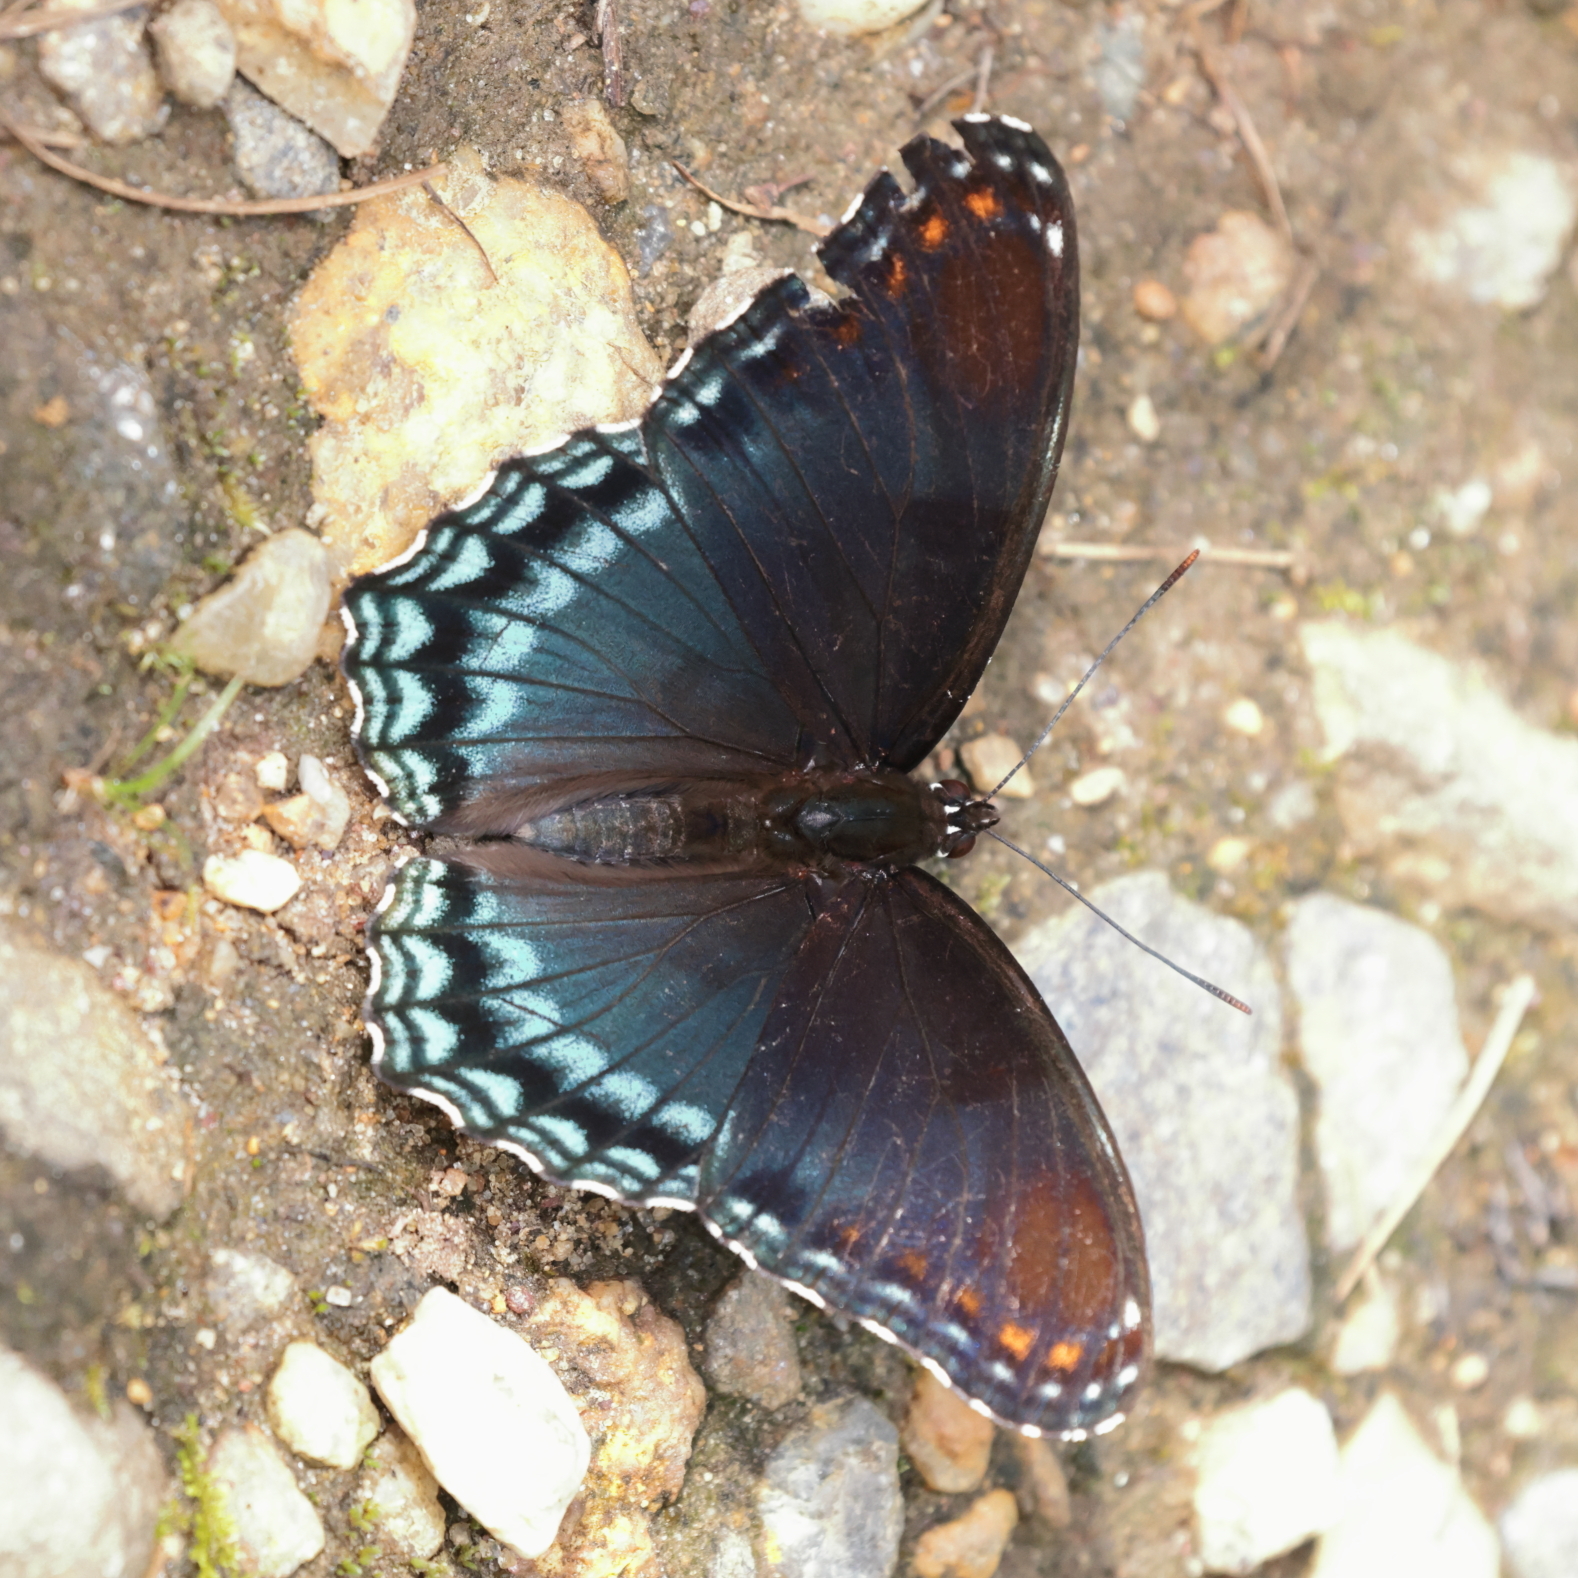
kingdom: Animalia
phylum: Arthropoda
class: Insecta
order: Lepidoptera
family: Nymphalidae
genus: Limenitis
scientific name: Limenitis arthemis
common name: Red-spotted admiral
